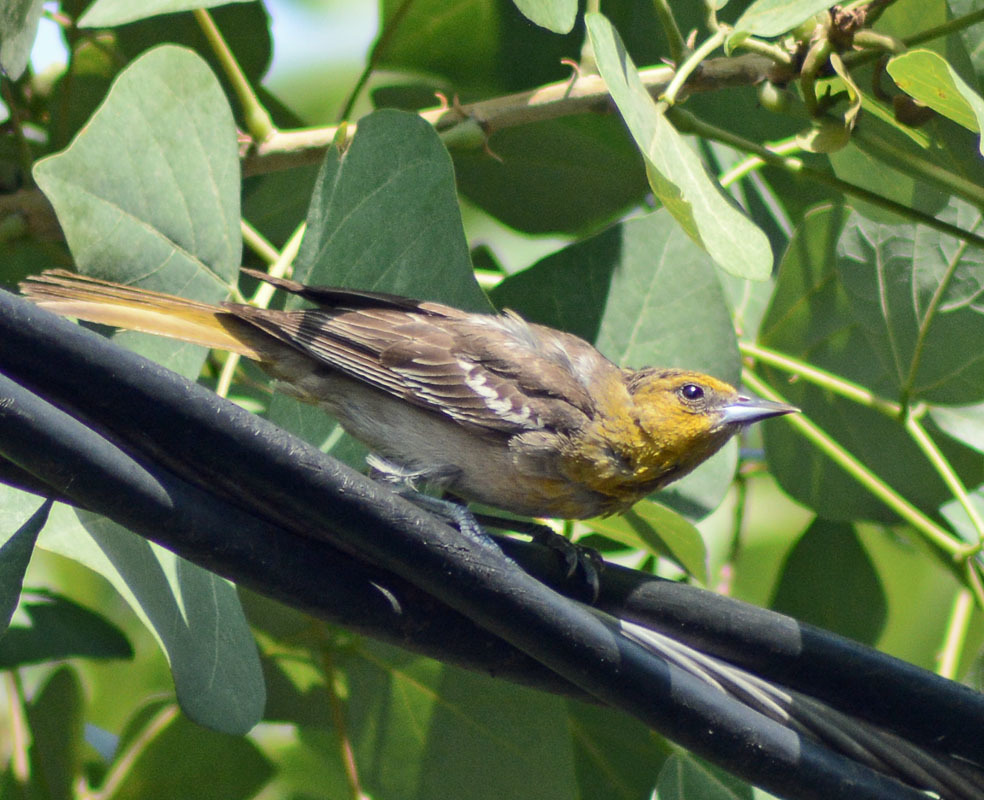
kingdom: Animalia
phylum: Chordata
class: Aves
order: Passeriformes
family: Icteridae
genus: Icterus
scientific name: Icterus abeillei
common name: Black-backed oriole
